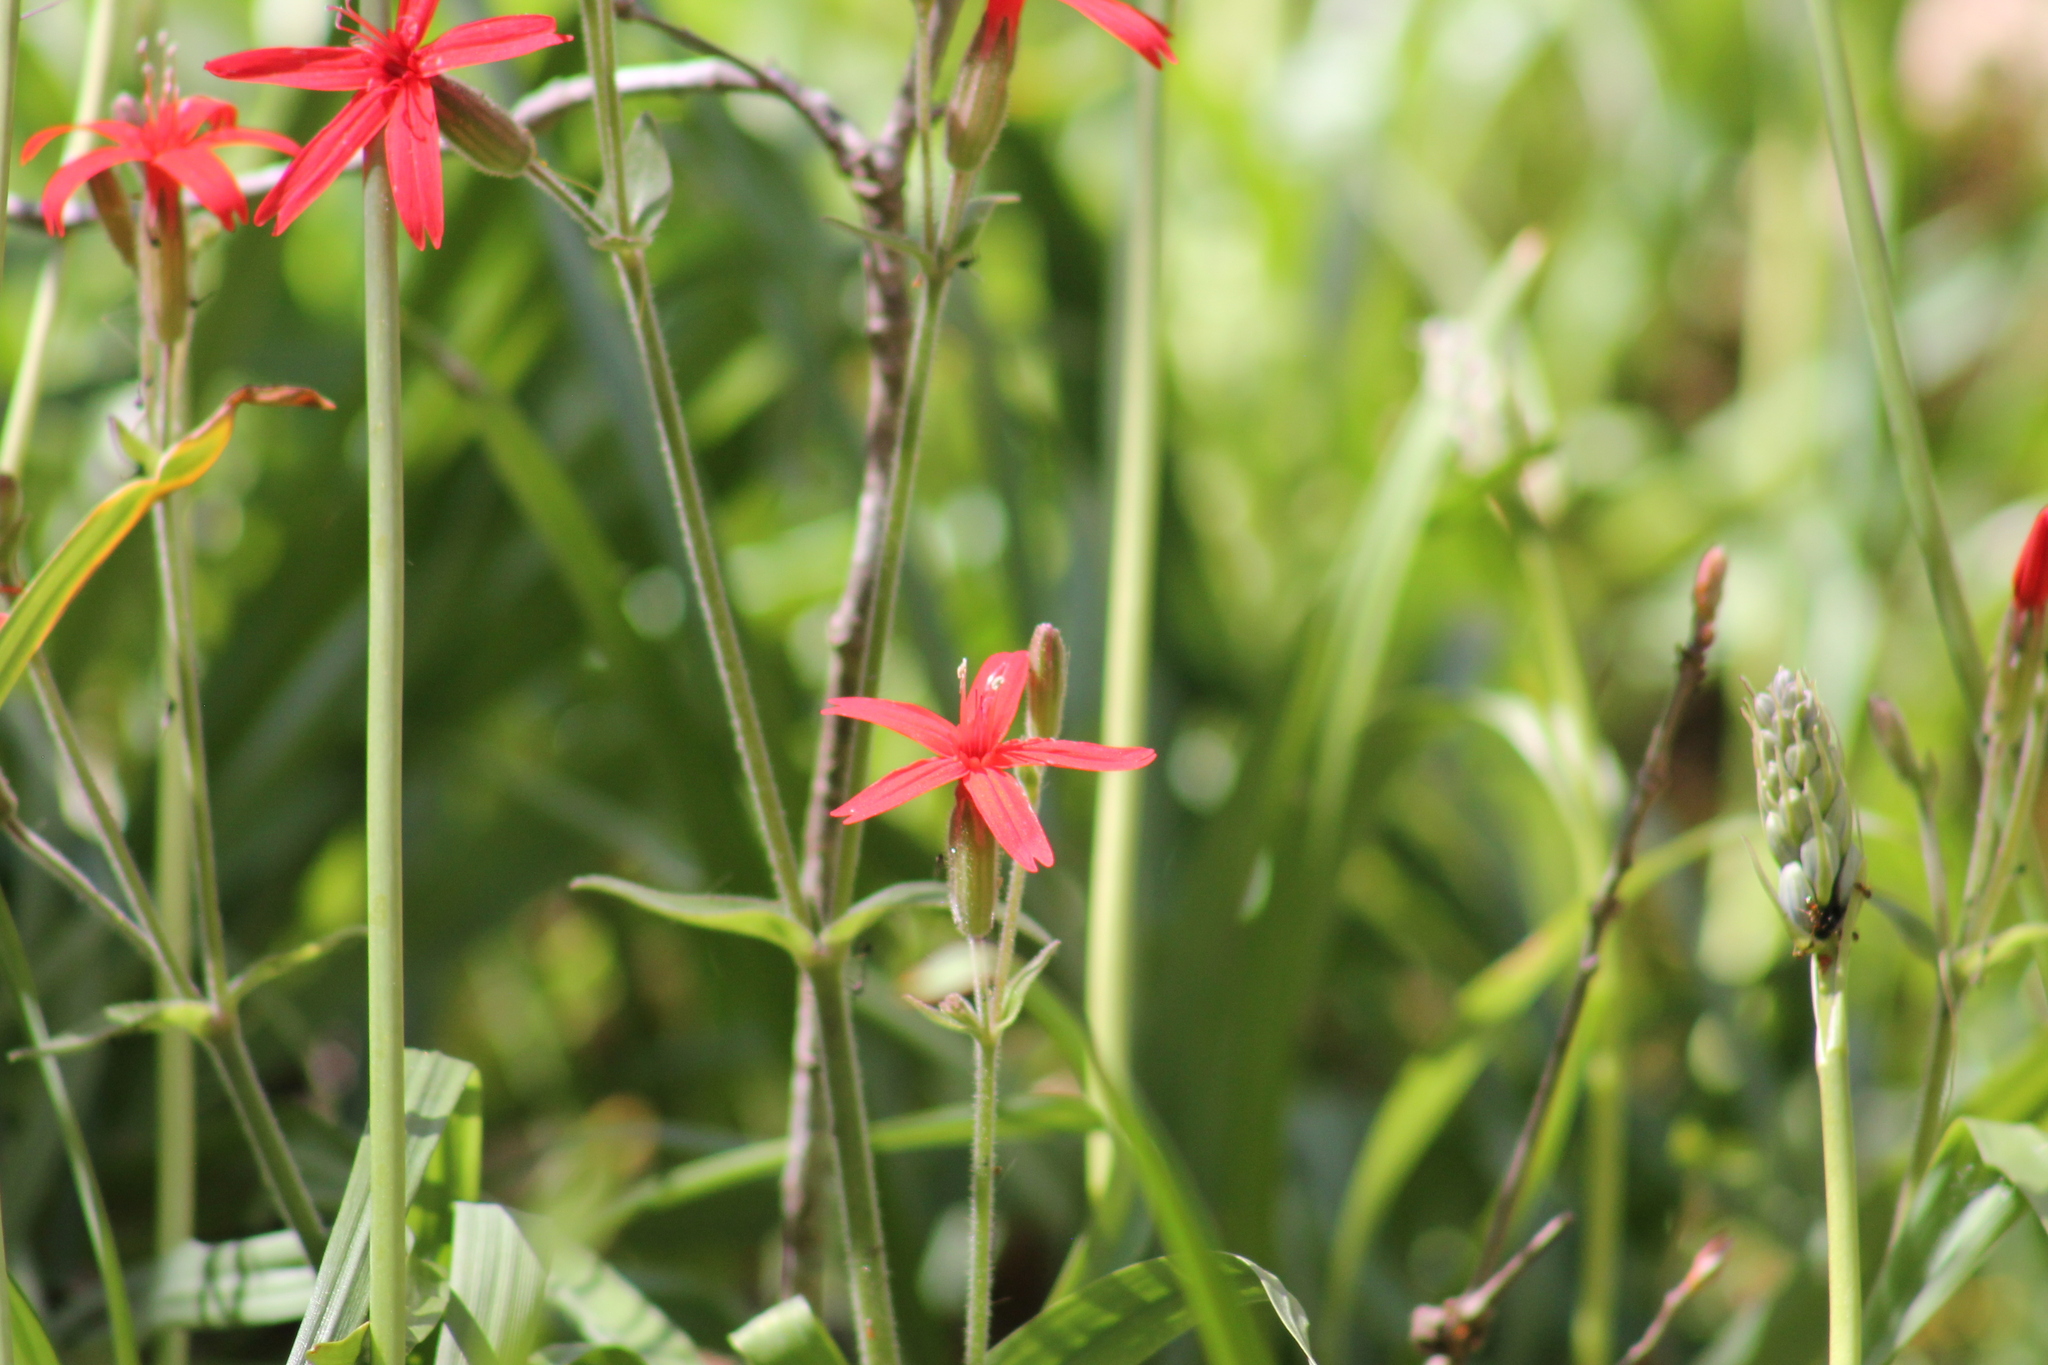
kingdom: Plantae
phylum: Tracheophyta
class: Magnoliopsida
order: Caryophyllales
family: Caryophyllaceae
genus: Silene
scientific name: Silene virginica
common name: Fire-pink
